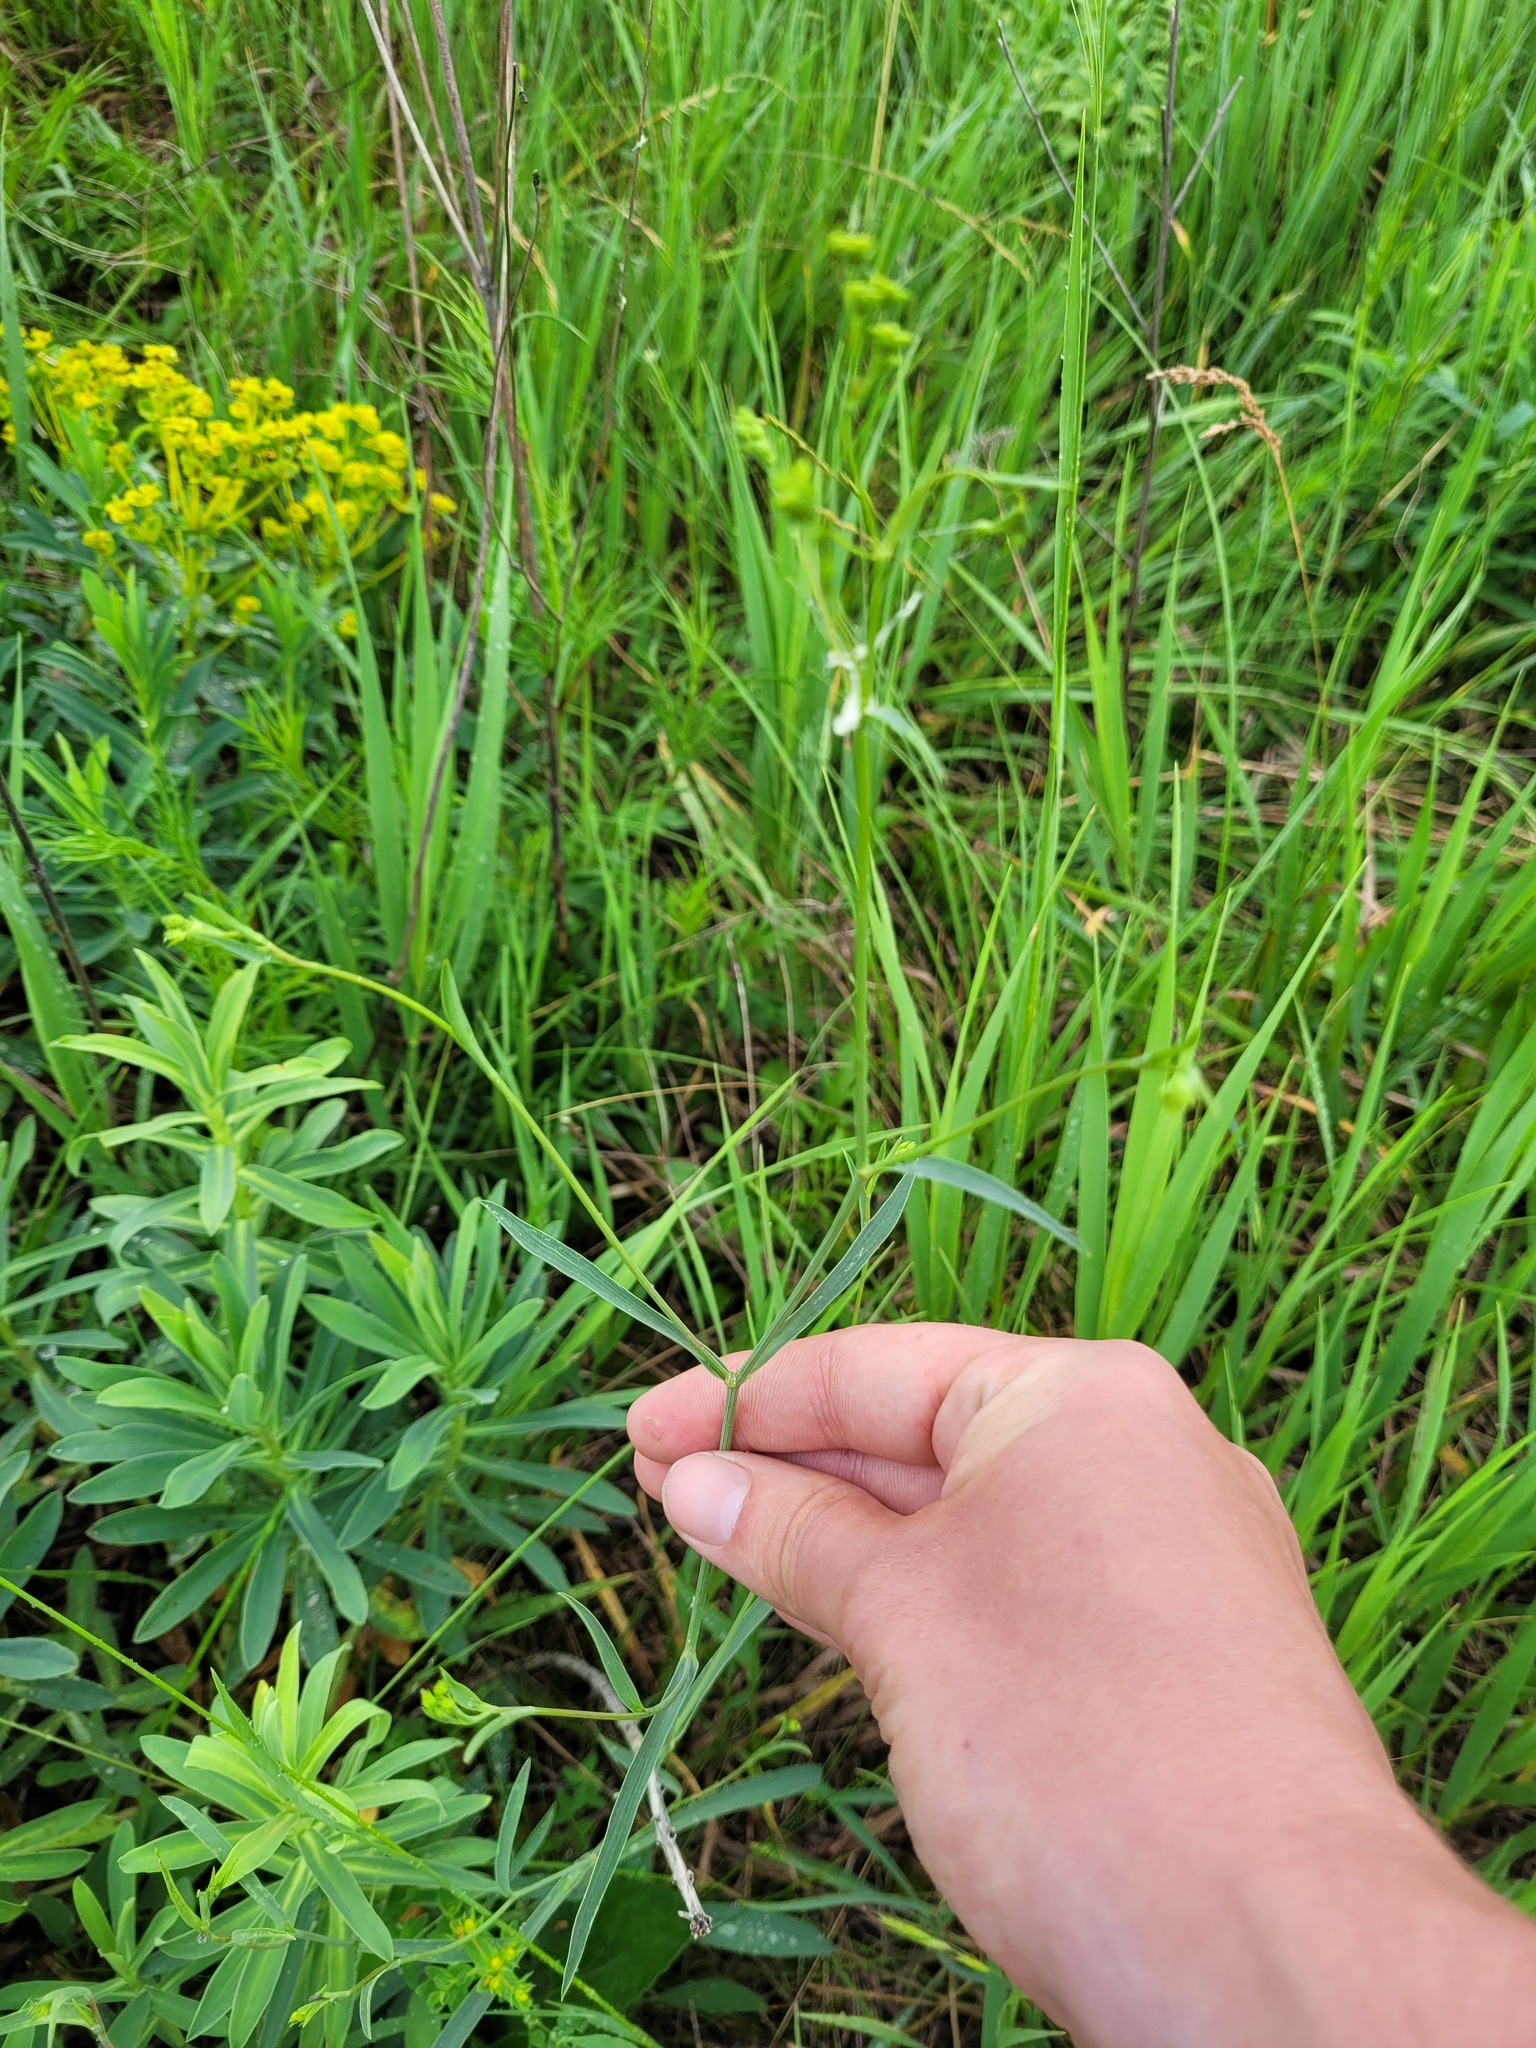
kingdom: Plantae
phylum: Tracheophyta
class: Magnoliopsida
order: Apiales
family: Apiaceae
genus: Bupleurum
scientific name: Bupleurum falcatum
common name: Sickle-leaved hare's-ear
